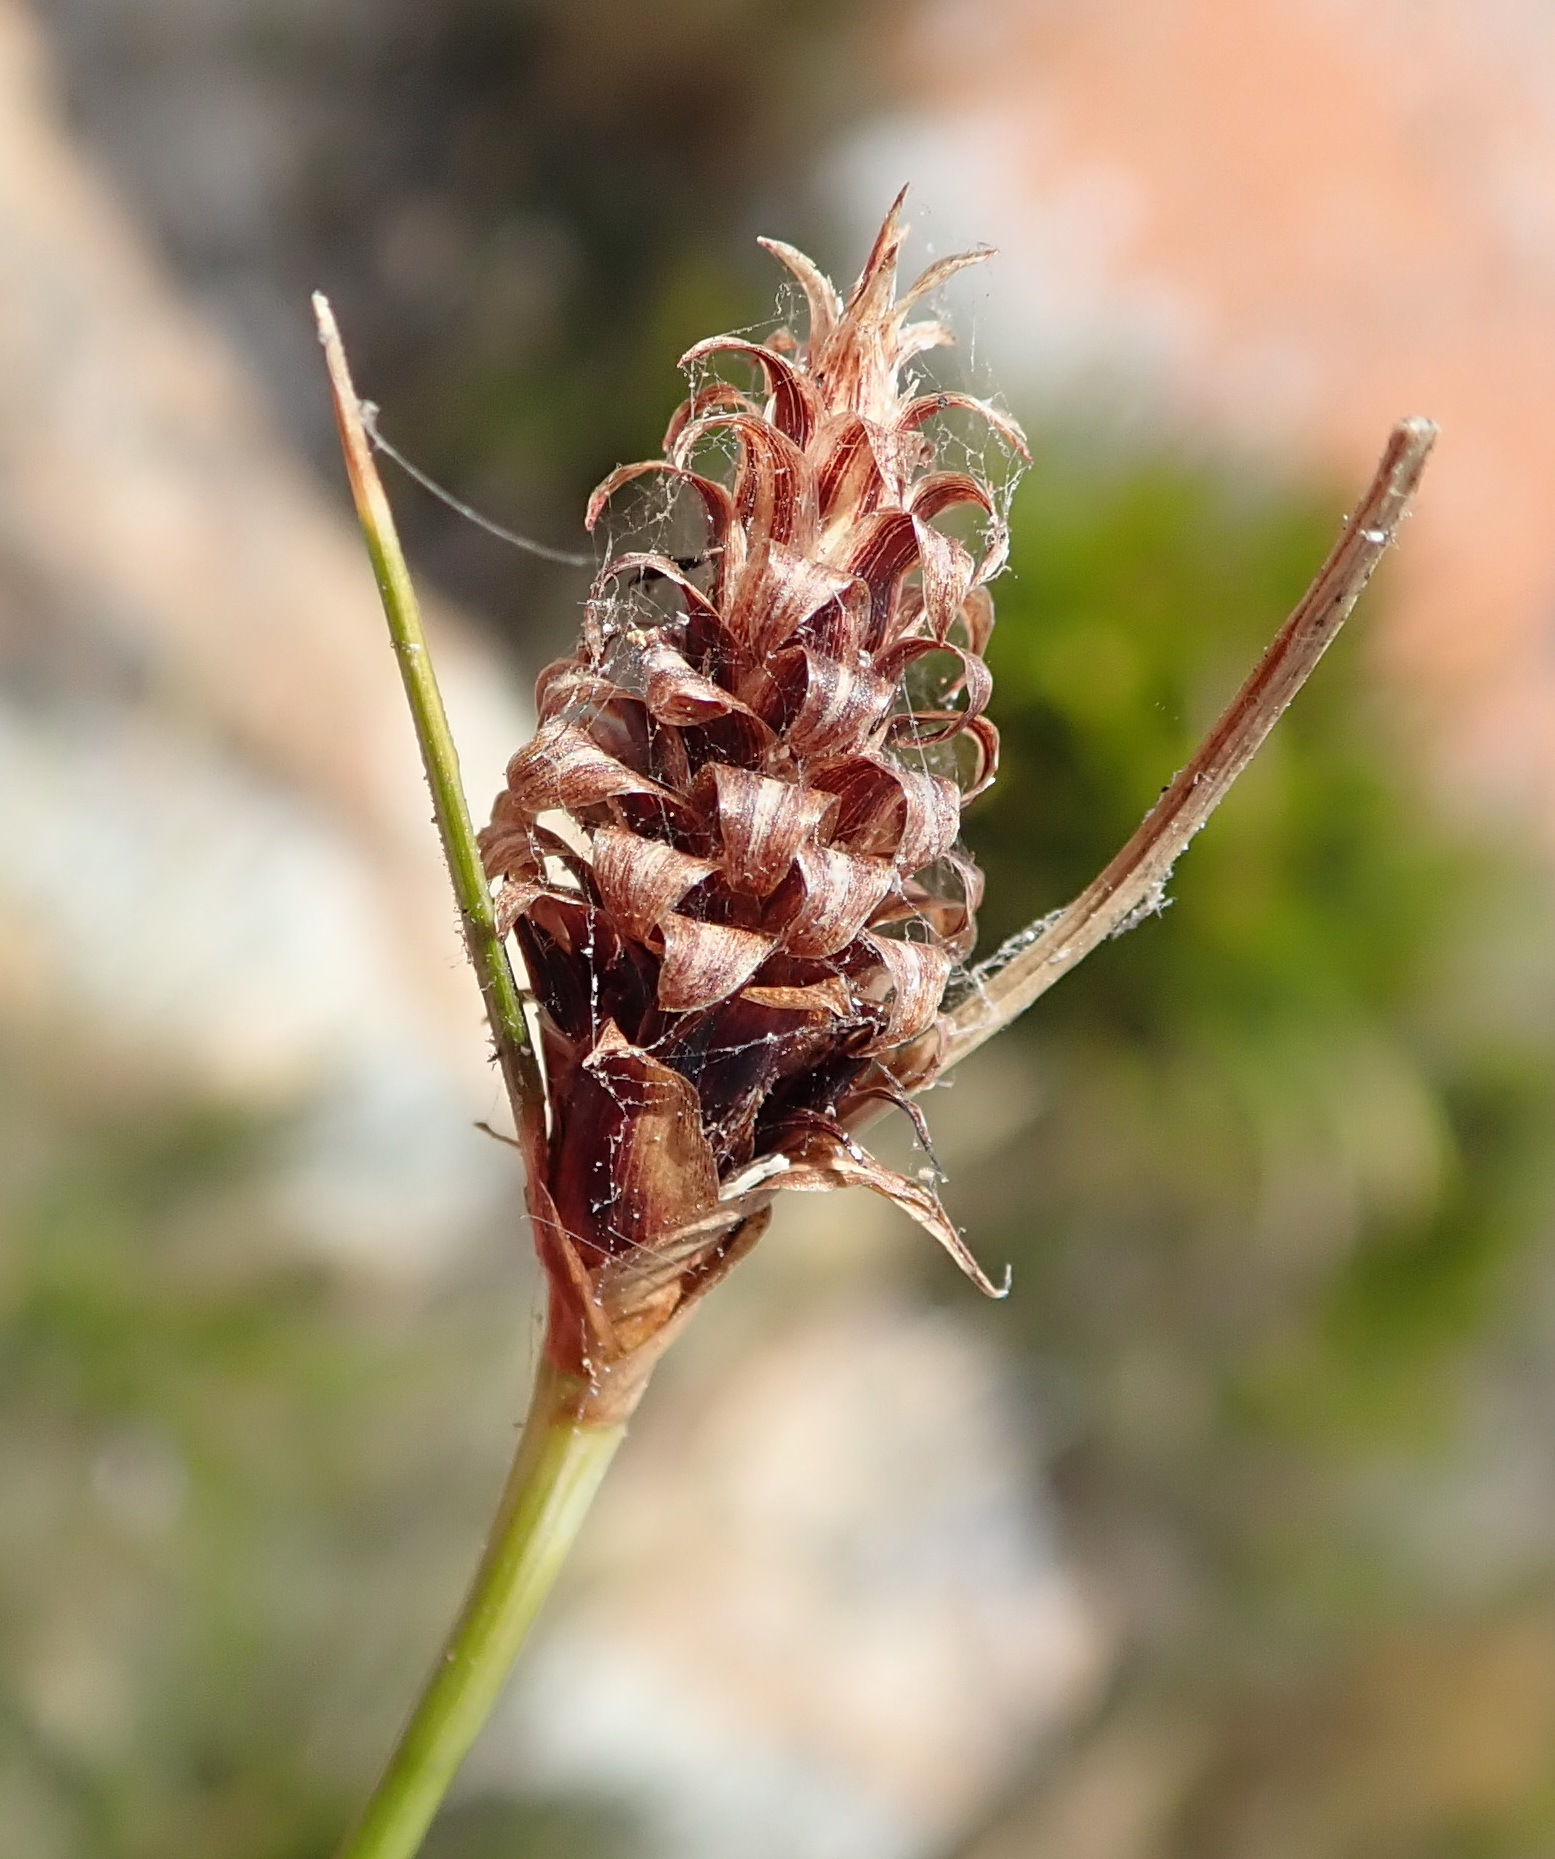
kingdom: Plantae
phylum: Tracheophyta
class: Liliopsida
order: Poales
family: Cyperaceae
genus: Ficinia
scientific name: Ficinia nigrescens
